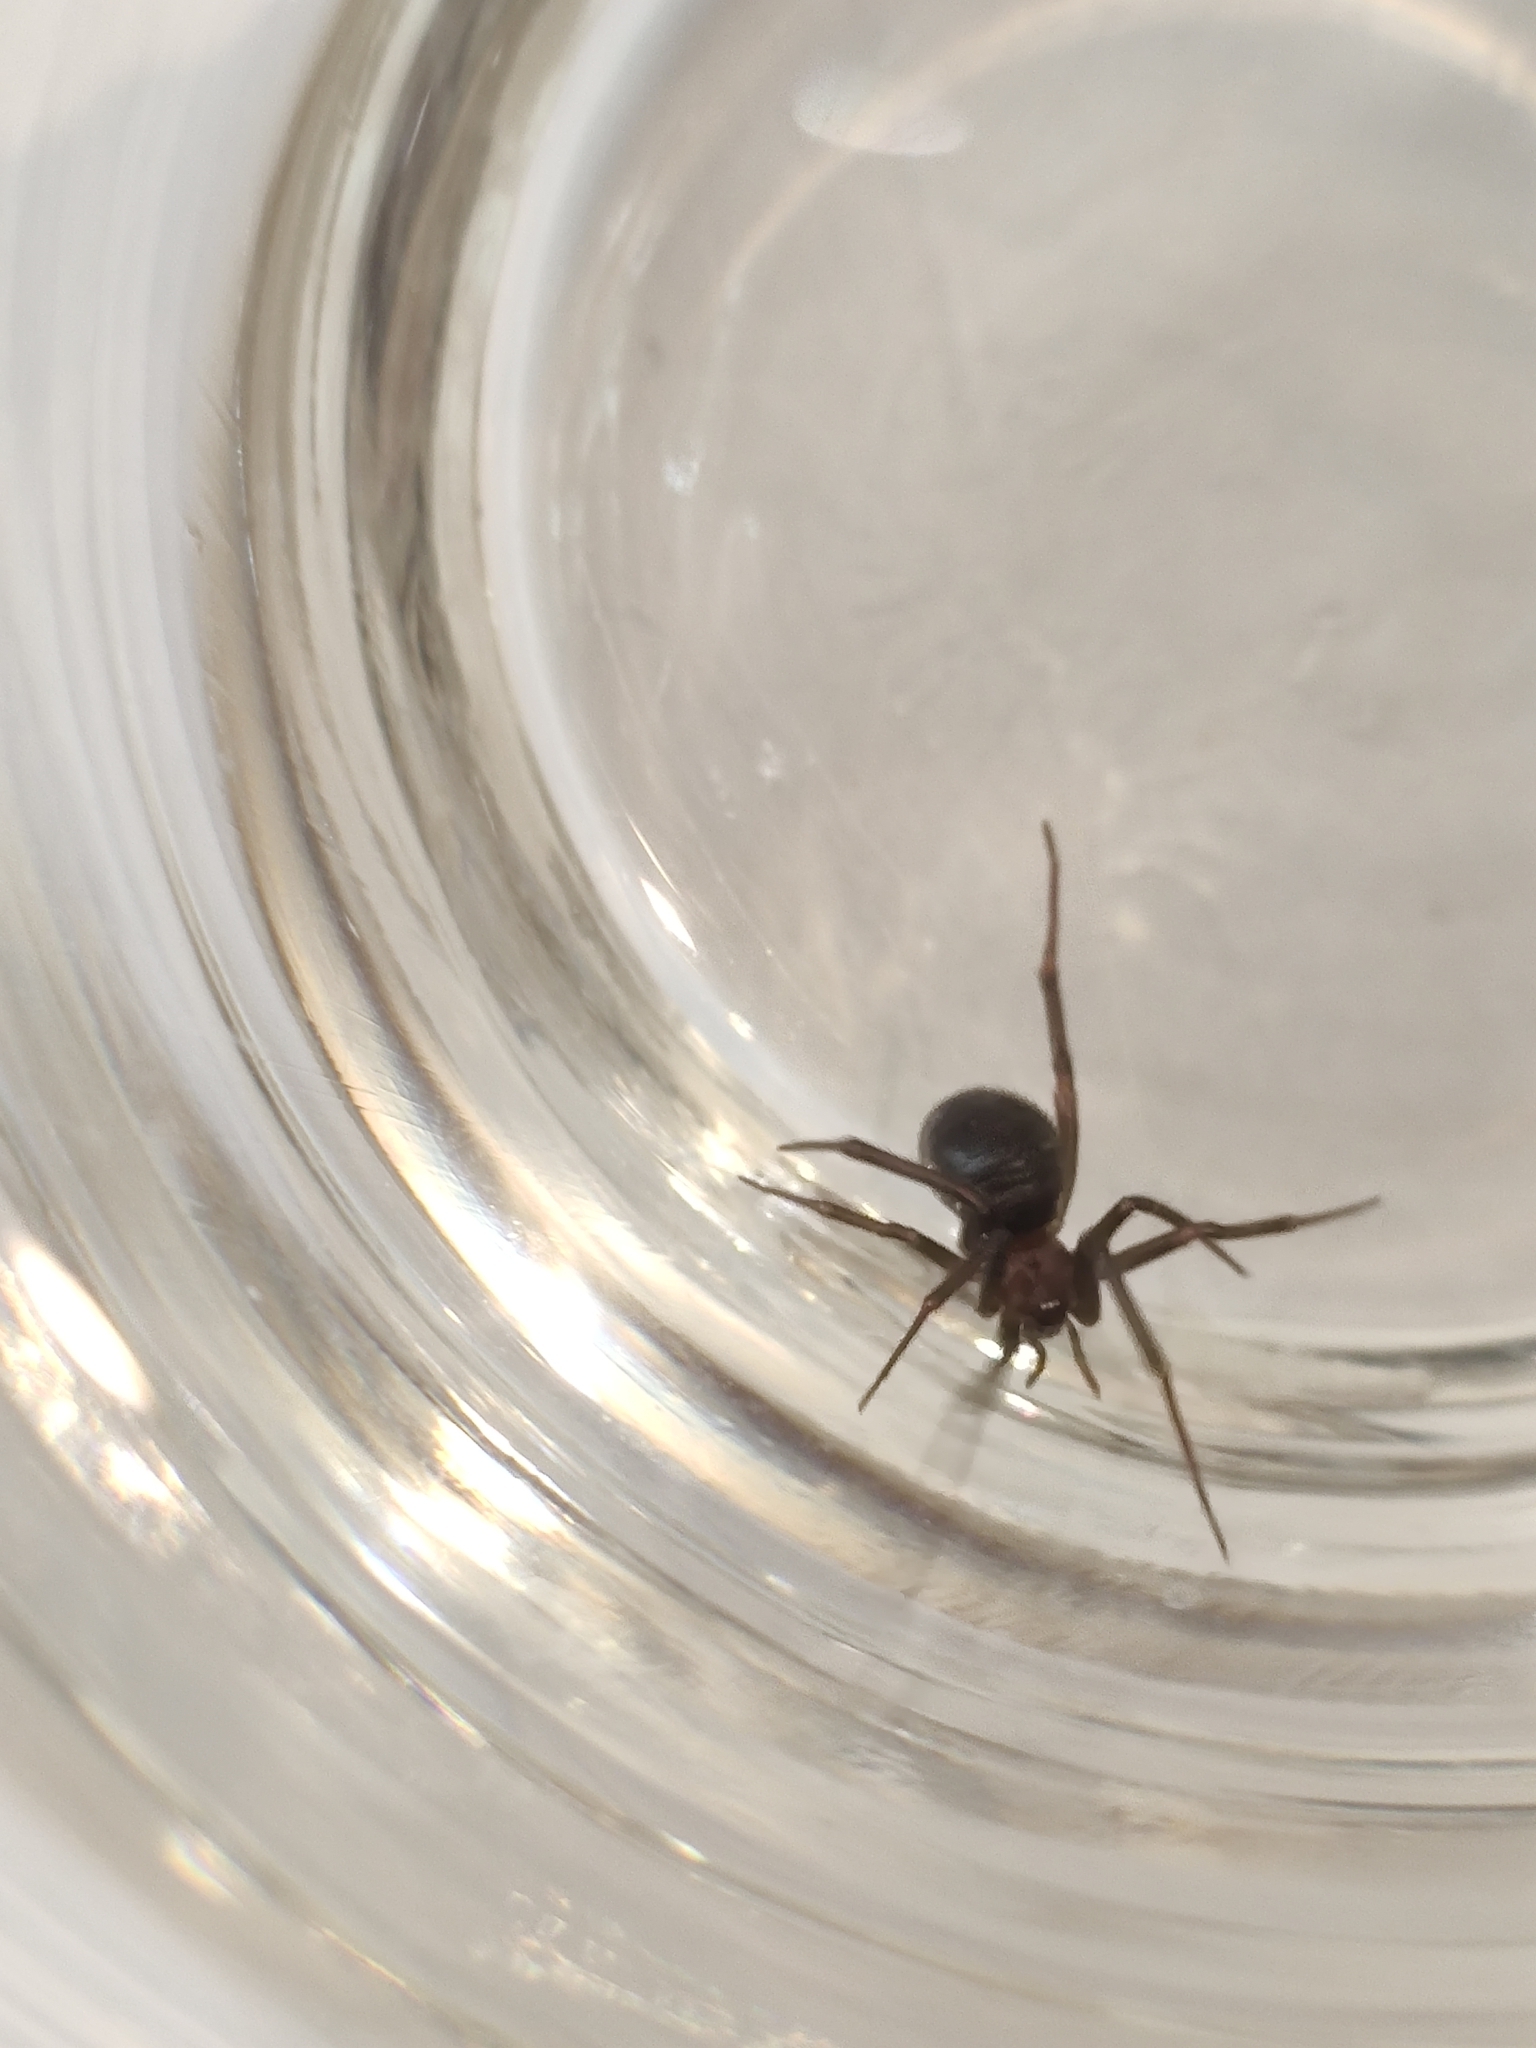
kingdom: Animalia
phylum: Arthropoda
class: Arachnida
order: Araneae
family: Theridiidae
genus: Steatoda
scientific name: Steatoda grossa
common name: False black widow
